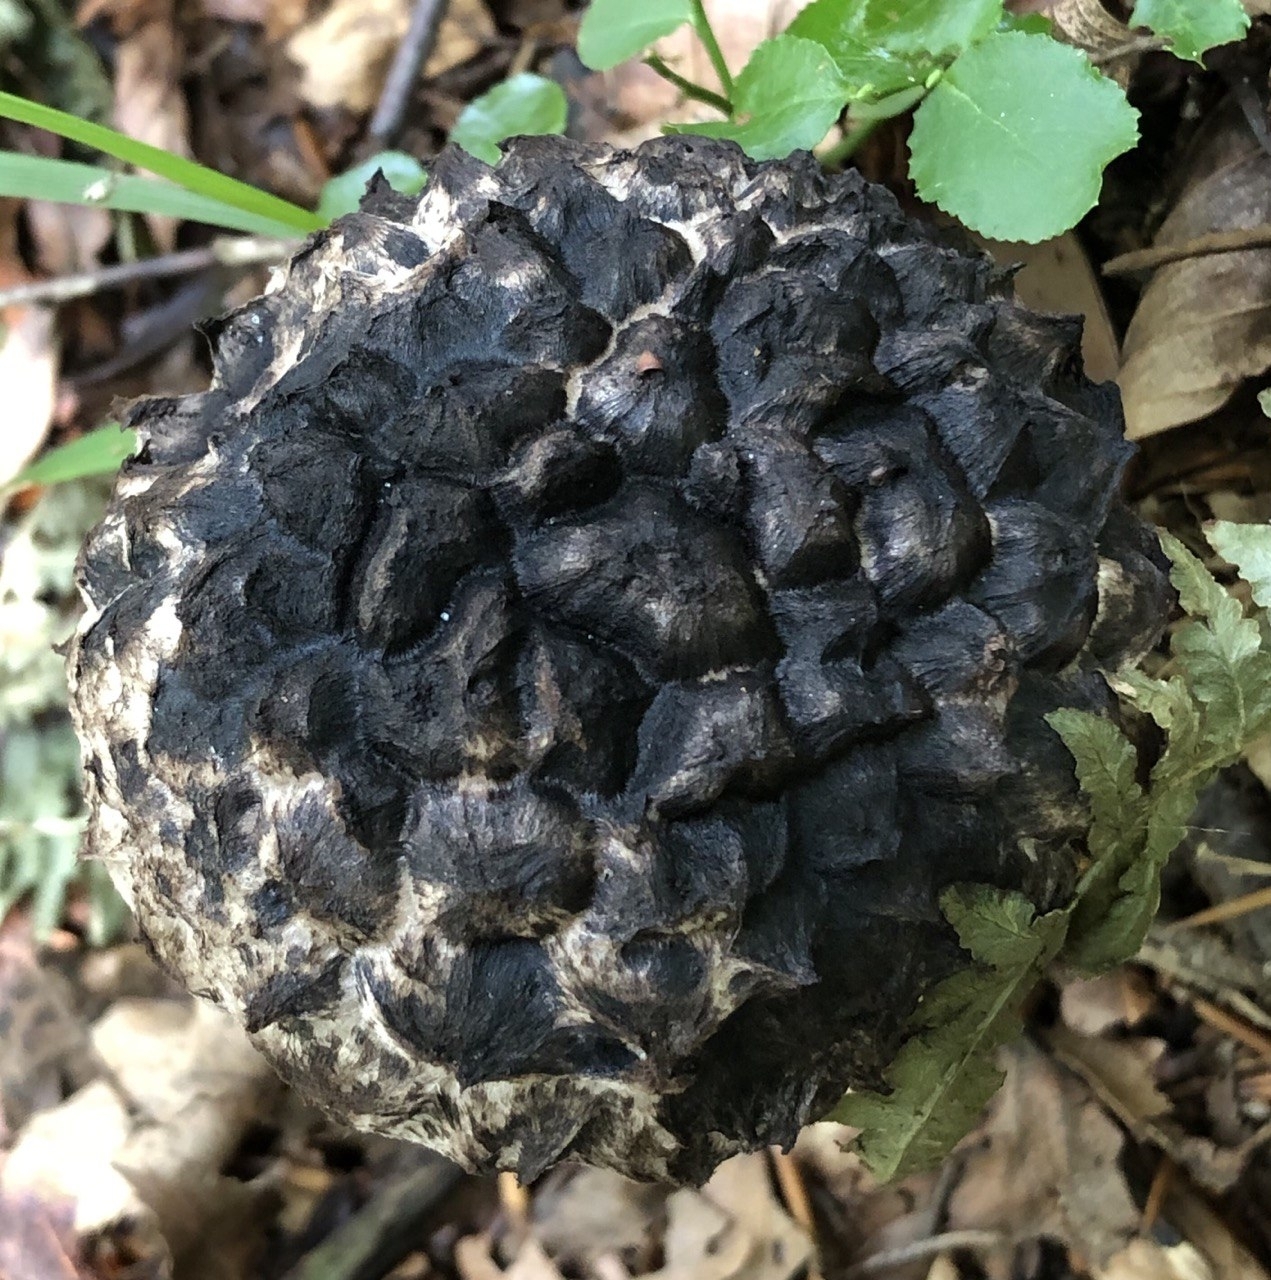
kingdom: Fungi
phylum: Basidiomycota
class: Agaricomycetes
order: Boletales
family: Boletaceae
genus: Strobilomyces
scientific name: Strobilomyces strobilaceus
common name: Old man of the woods
